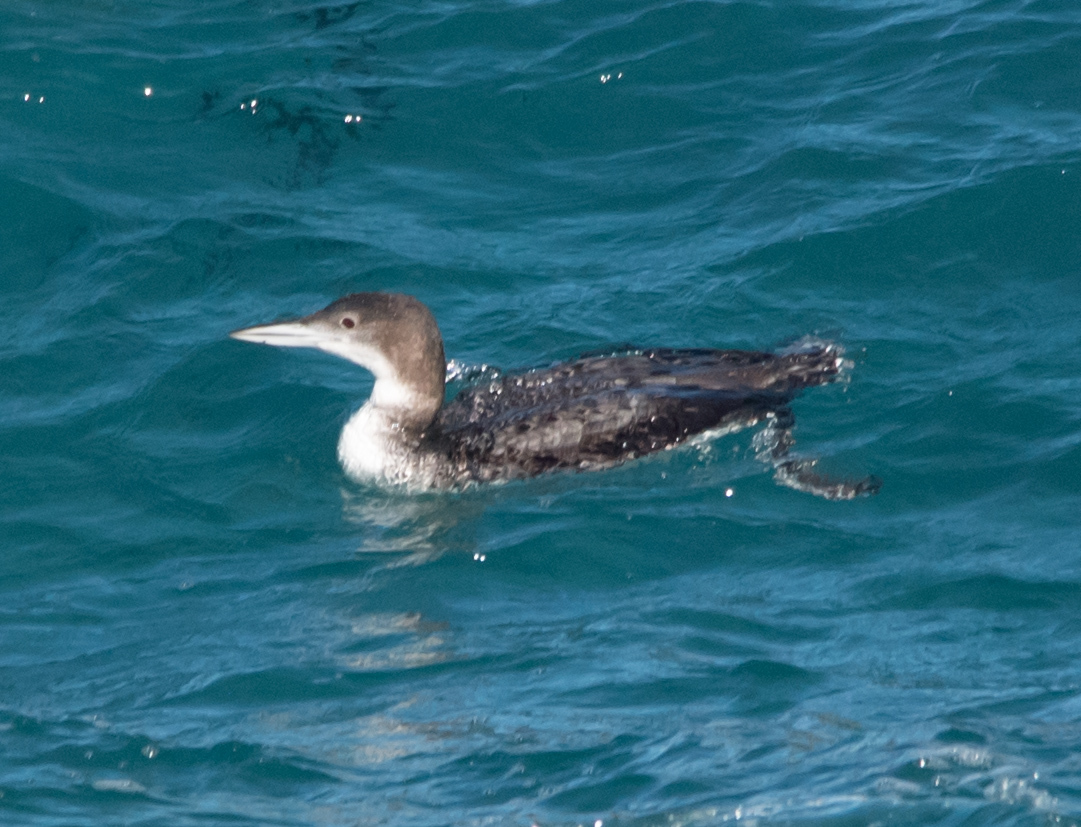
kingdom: Animalia
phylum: Chordata
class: Aves
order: Gaviiformes
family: Gaviidae
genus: Gavia
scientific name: Gavia immer
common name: Common loon
